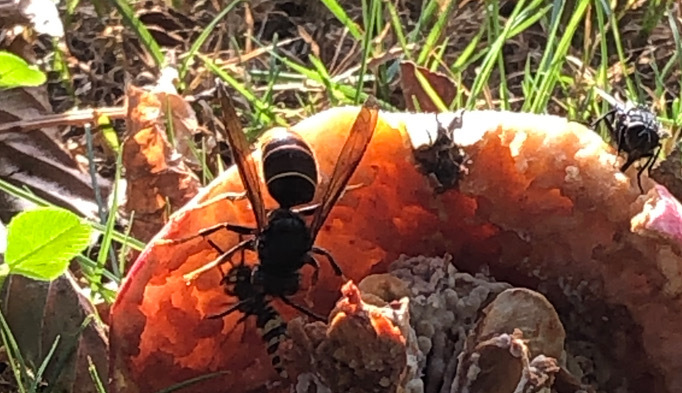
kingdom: Animalia
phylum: Arthropoda
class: Insecta
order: Hymenoptera
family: Vespidae
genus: Vespa
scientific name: Vespa velutina
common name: Asian hornet
